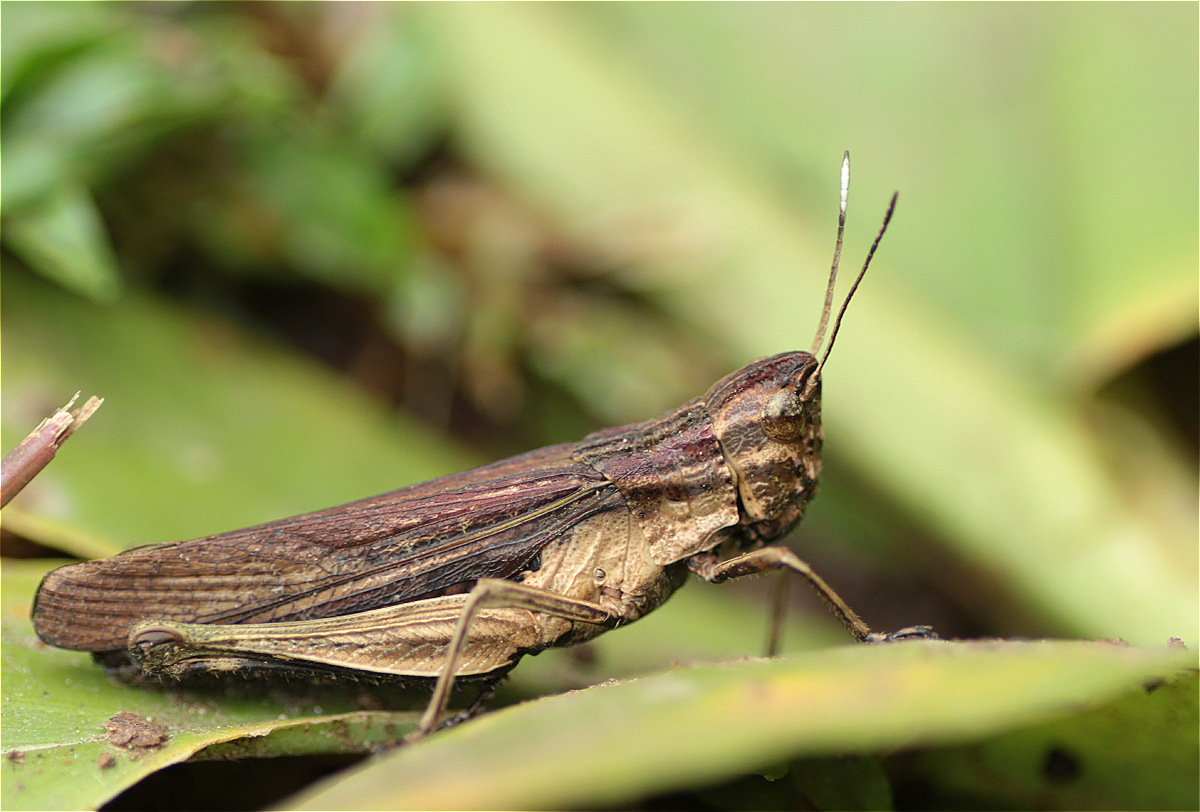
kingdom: Animalia
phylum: Arthropoda
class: Insecta
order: Orthoptera
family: Acrididae
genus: Peruvia
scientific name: Peruvia nigromarginata
